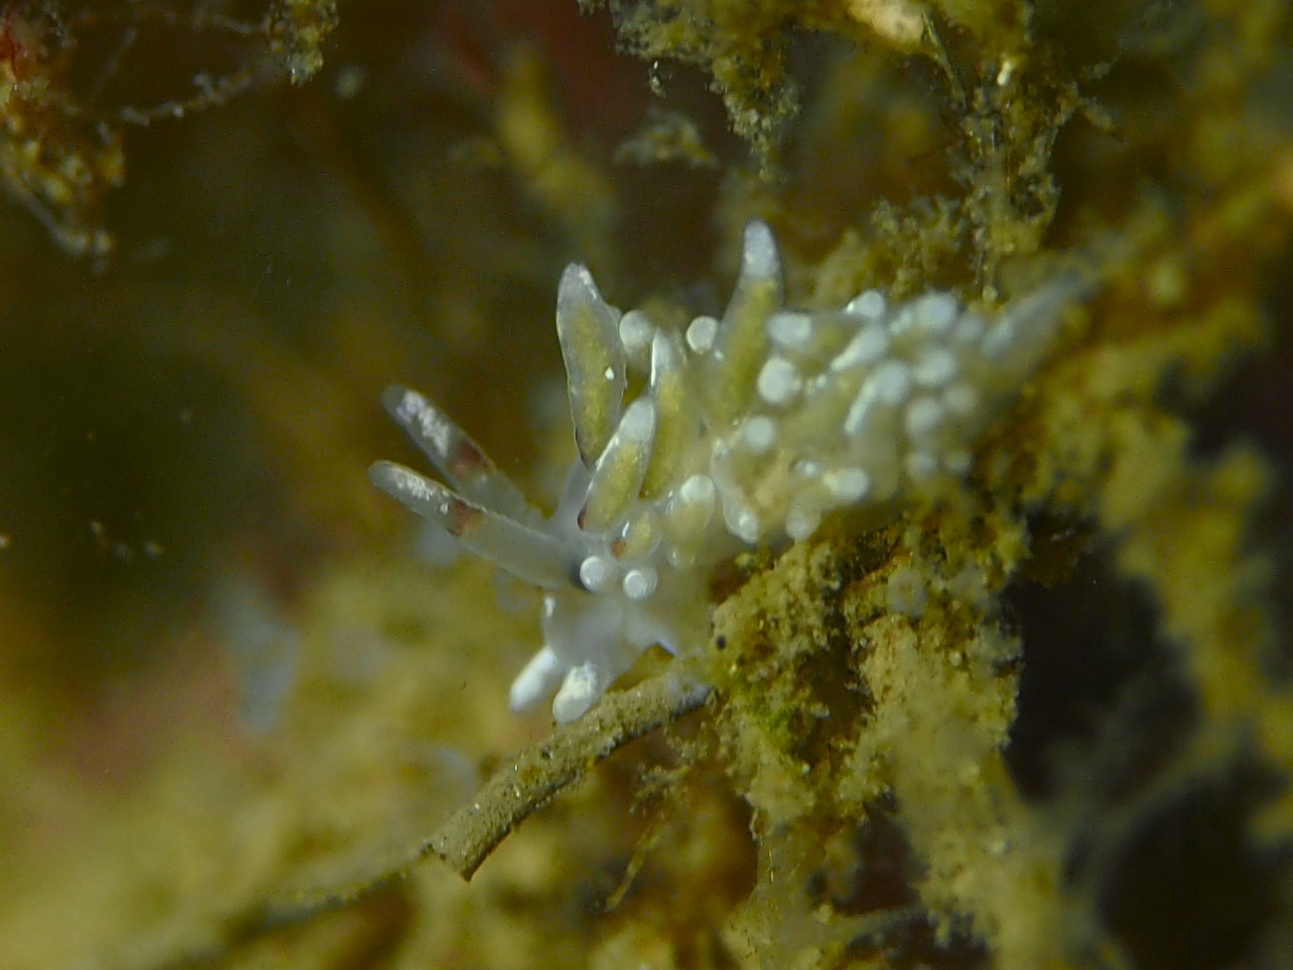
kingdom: Animalia
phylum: Mollusca
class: Gastropoda
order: Nudibranchia
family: Trinchesiidae
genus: Rubramoena
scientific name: Rubramoena rubescens
